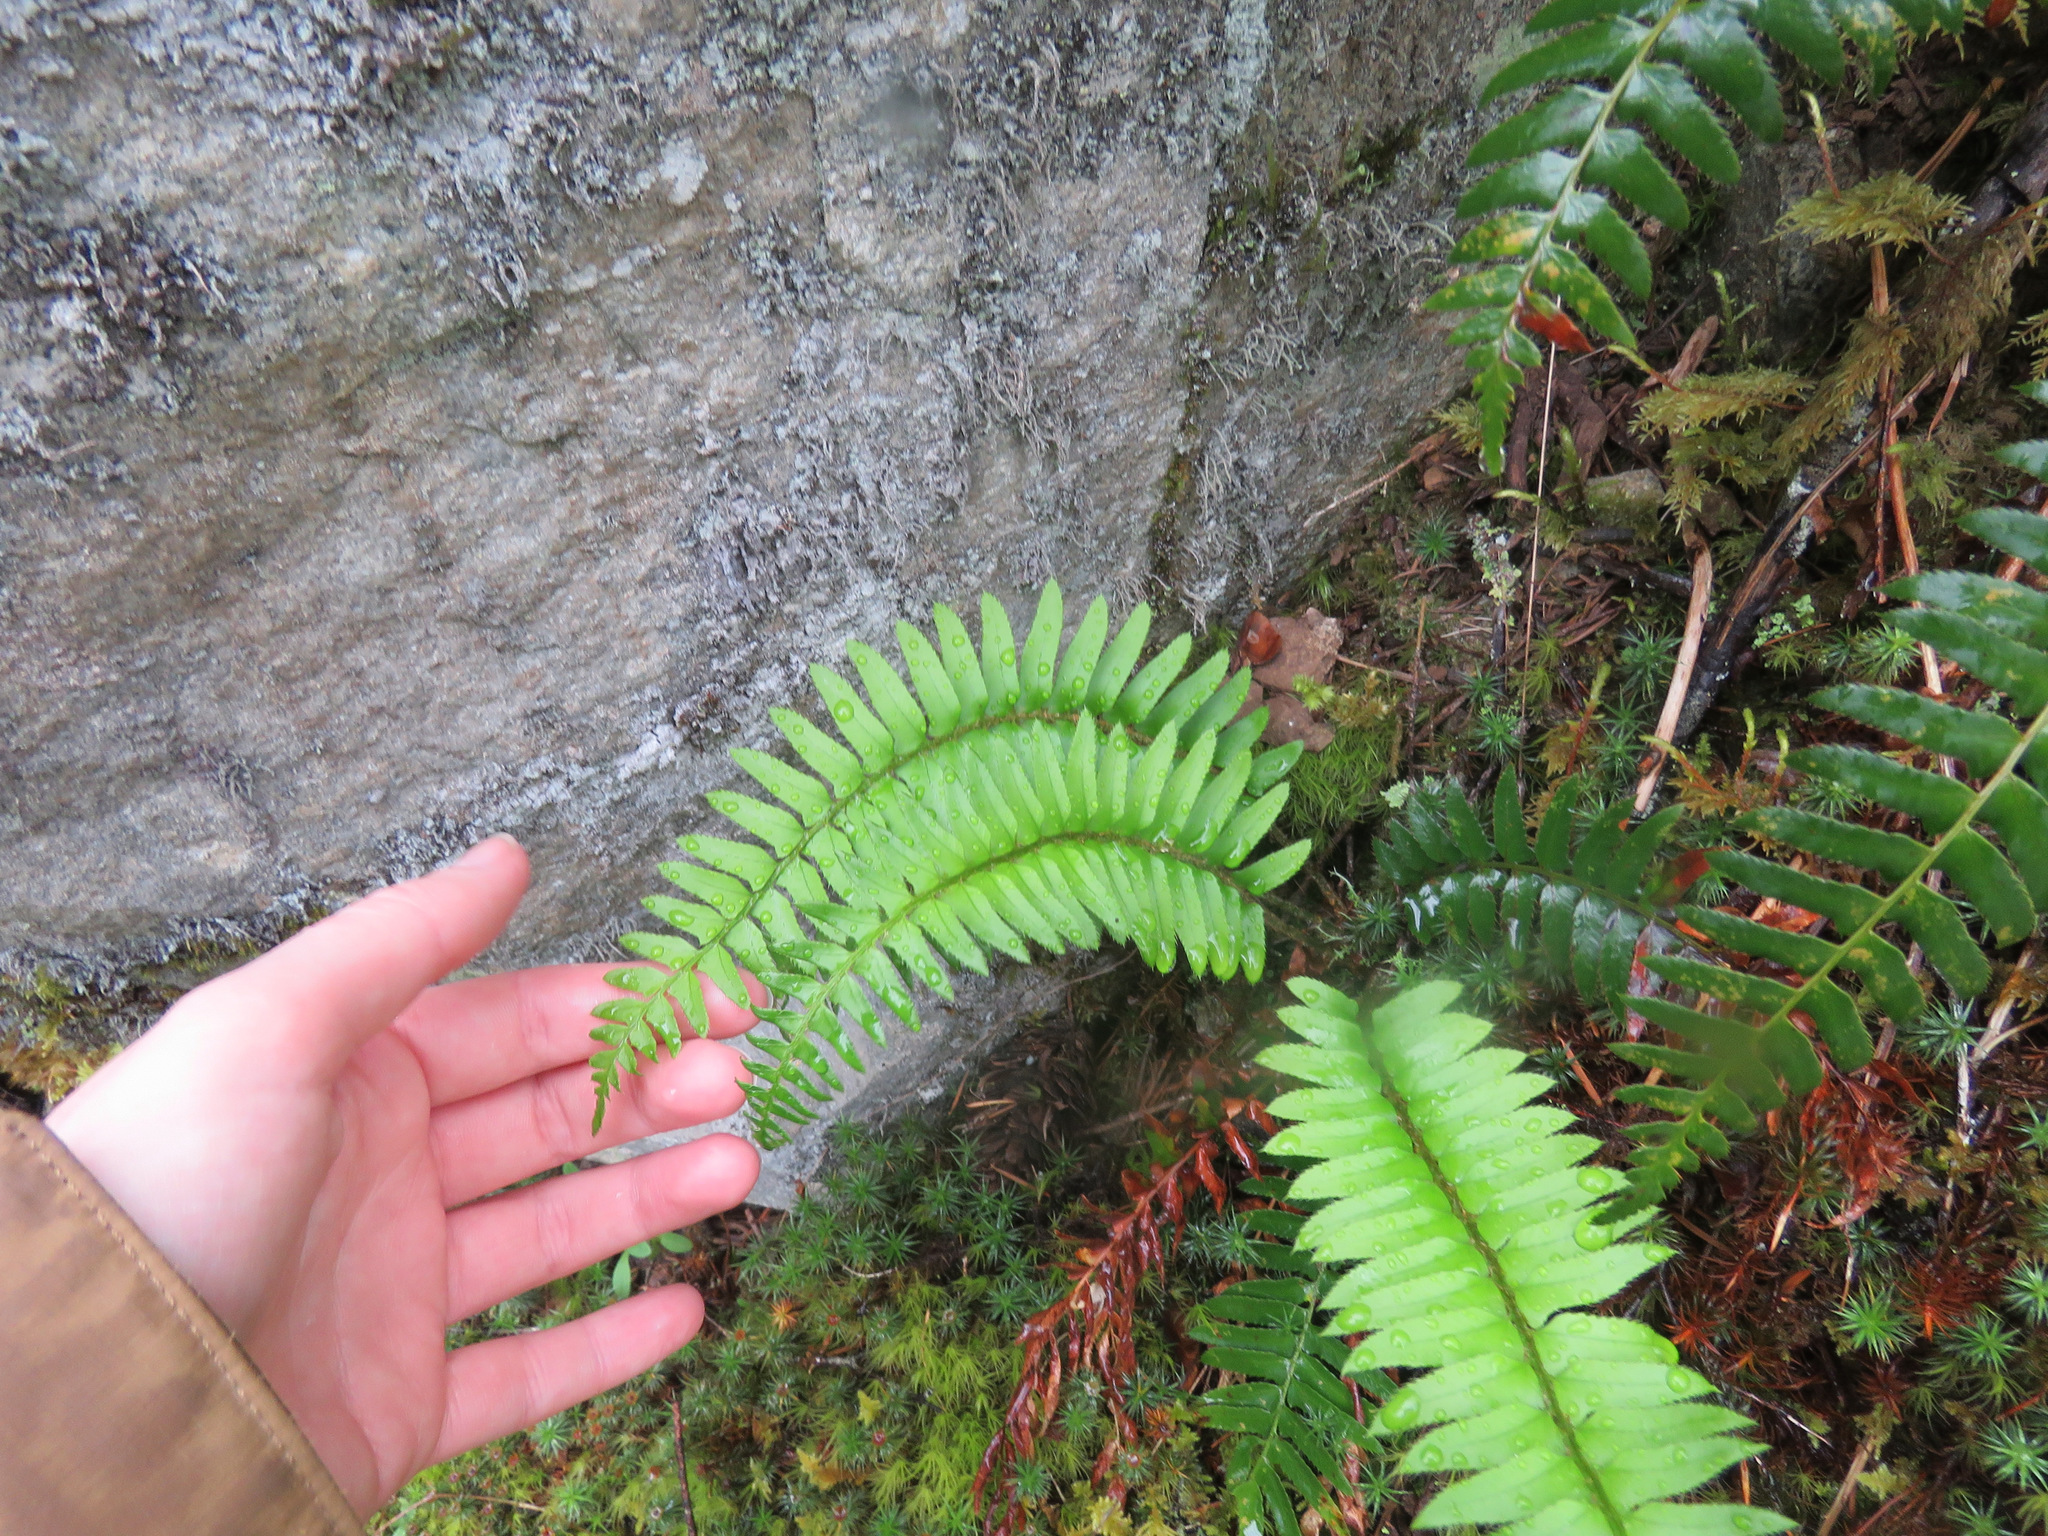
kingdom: Plantae
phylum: Tracheophyta
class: Polypodiopsida
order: Polypodiales
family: Dryopteridaceae
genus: Polystichum
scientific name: Polystichum munitum
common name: Western sword-fern
